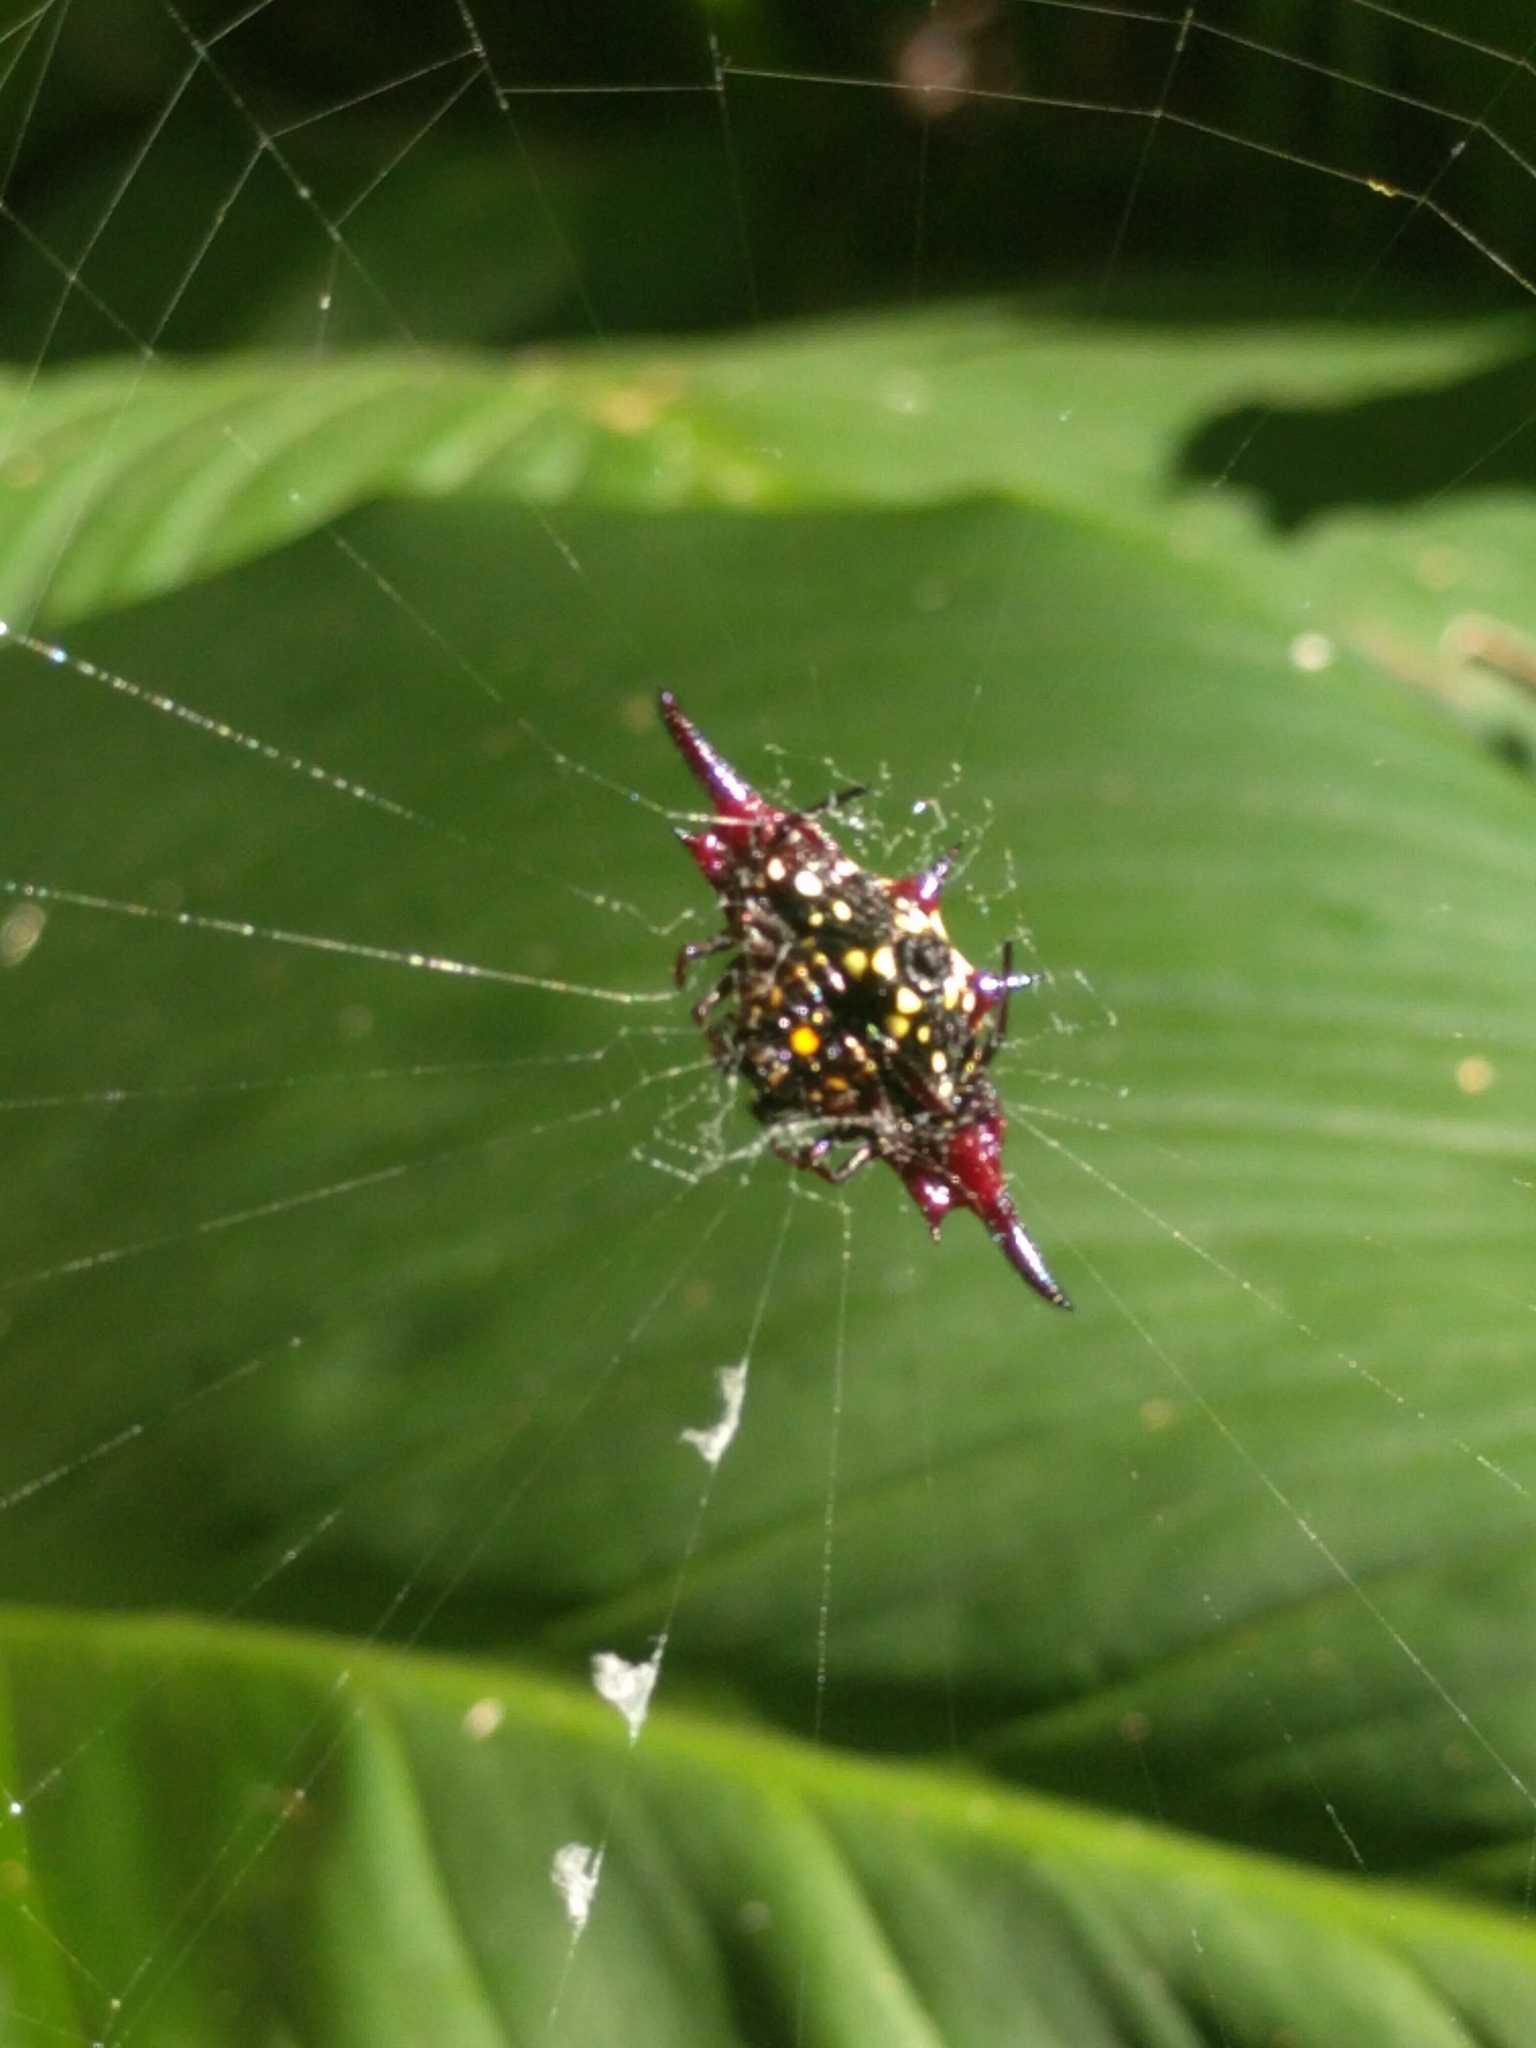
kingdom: Animalia
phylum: Arthropoda
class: Arachnida
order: Araneae
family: Araneidae
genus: Gasteracantha
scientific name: Gasteracantha fornicata
